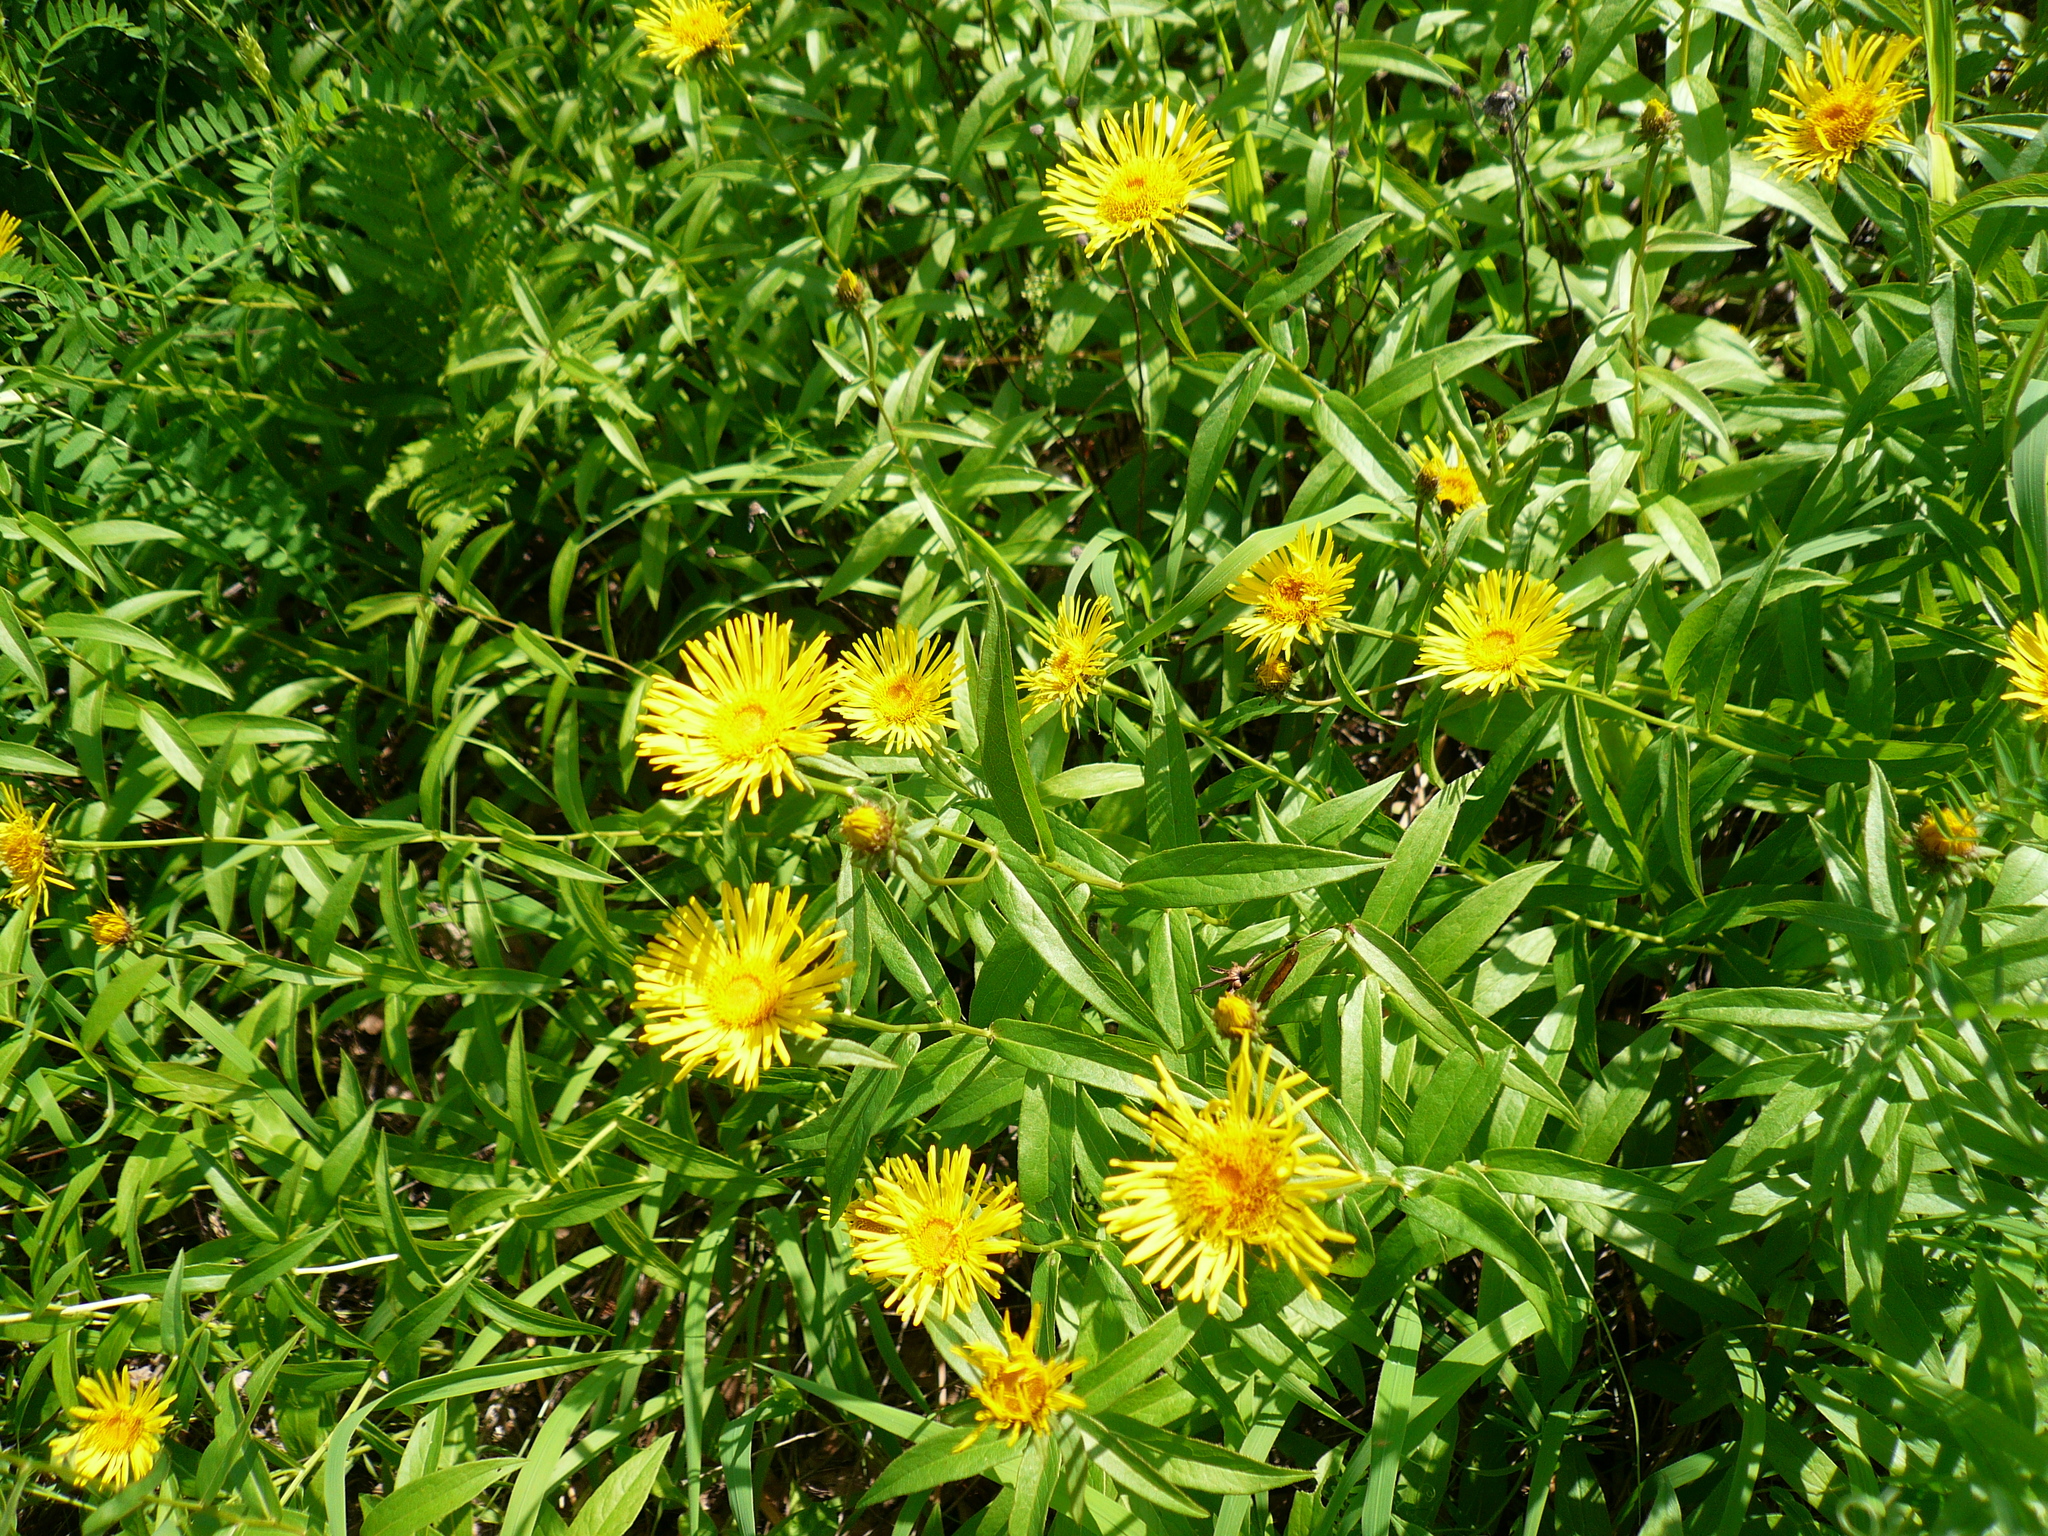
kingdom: Plantae
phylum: Tracheophyta
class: Magnoliopsida
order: Asterales
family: Asteraceae
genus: Pentanema
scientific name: Pentanema salicinum
